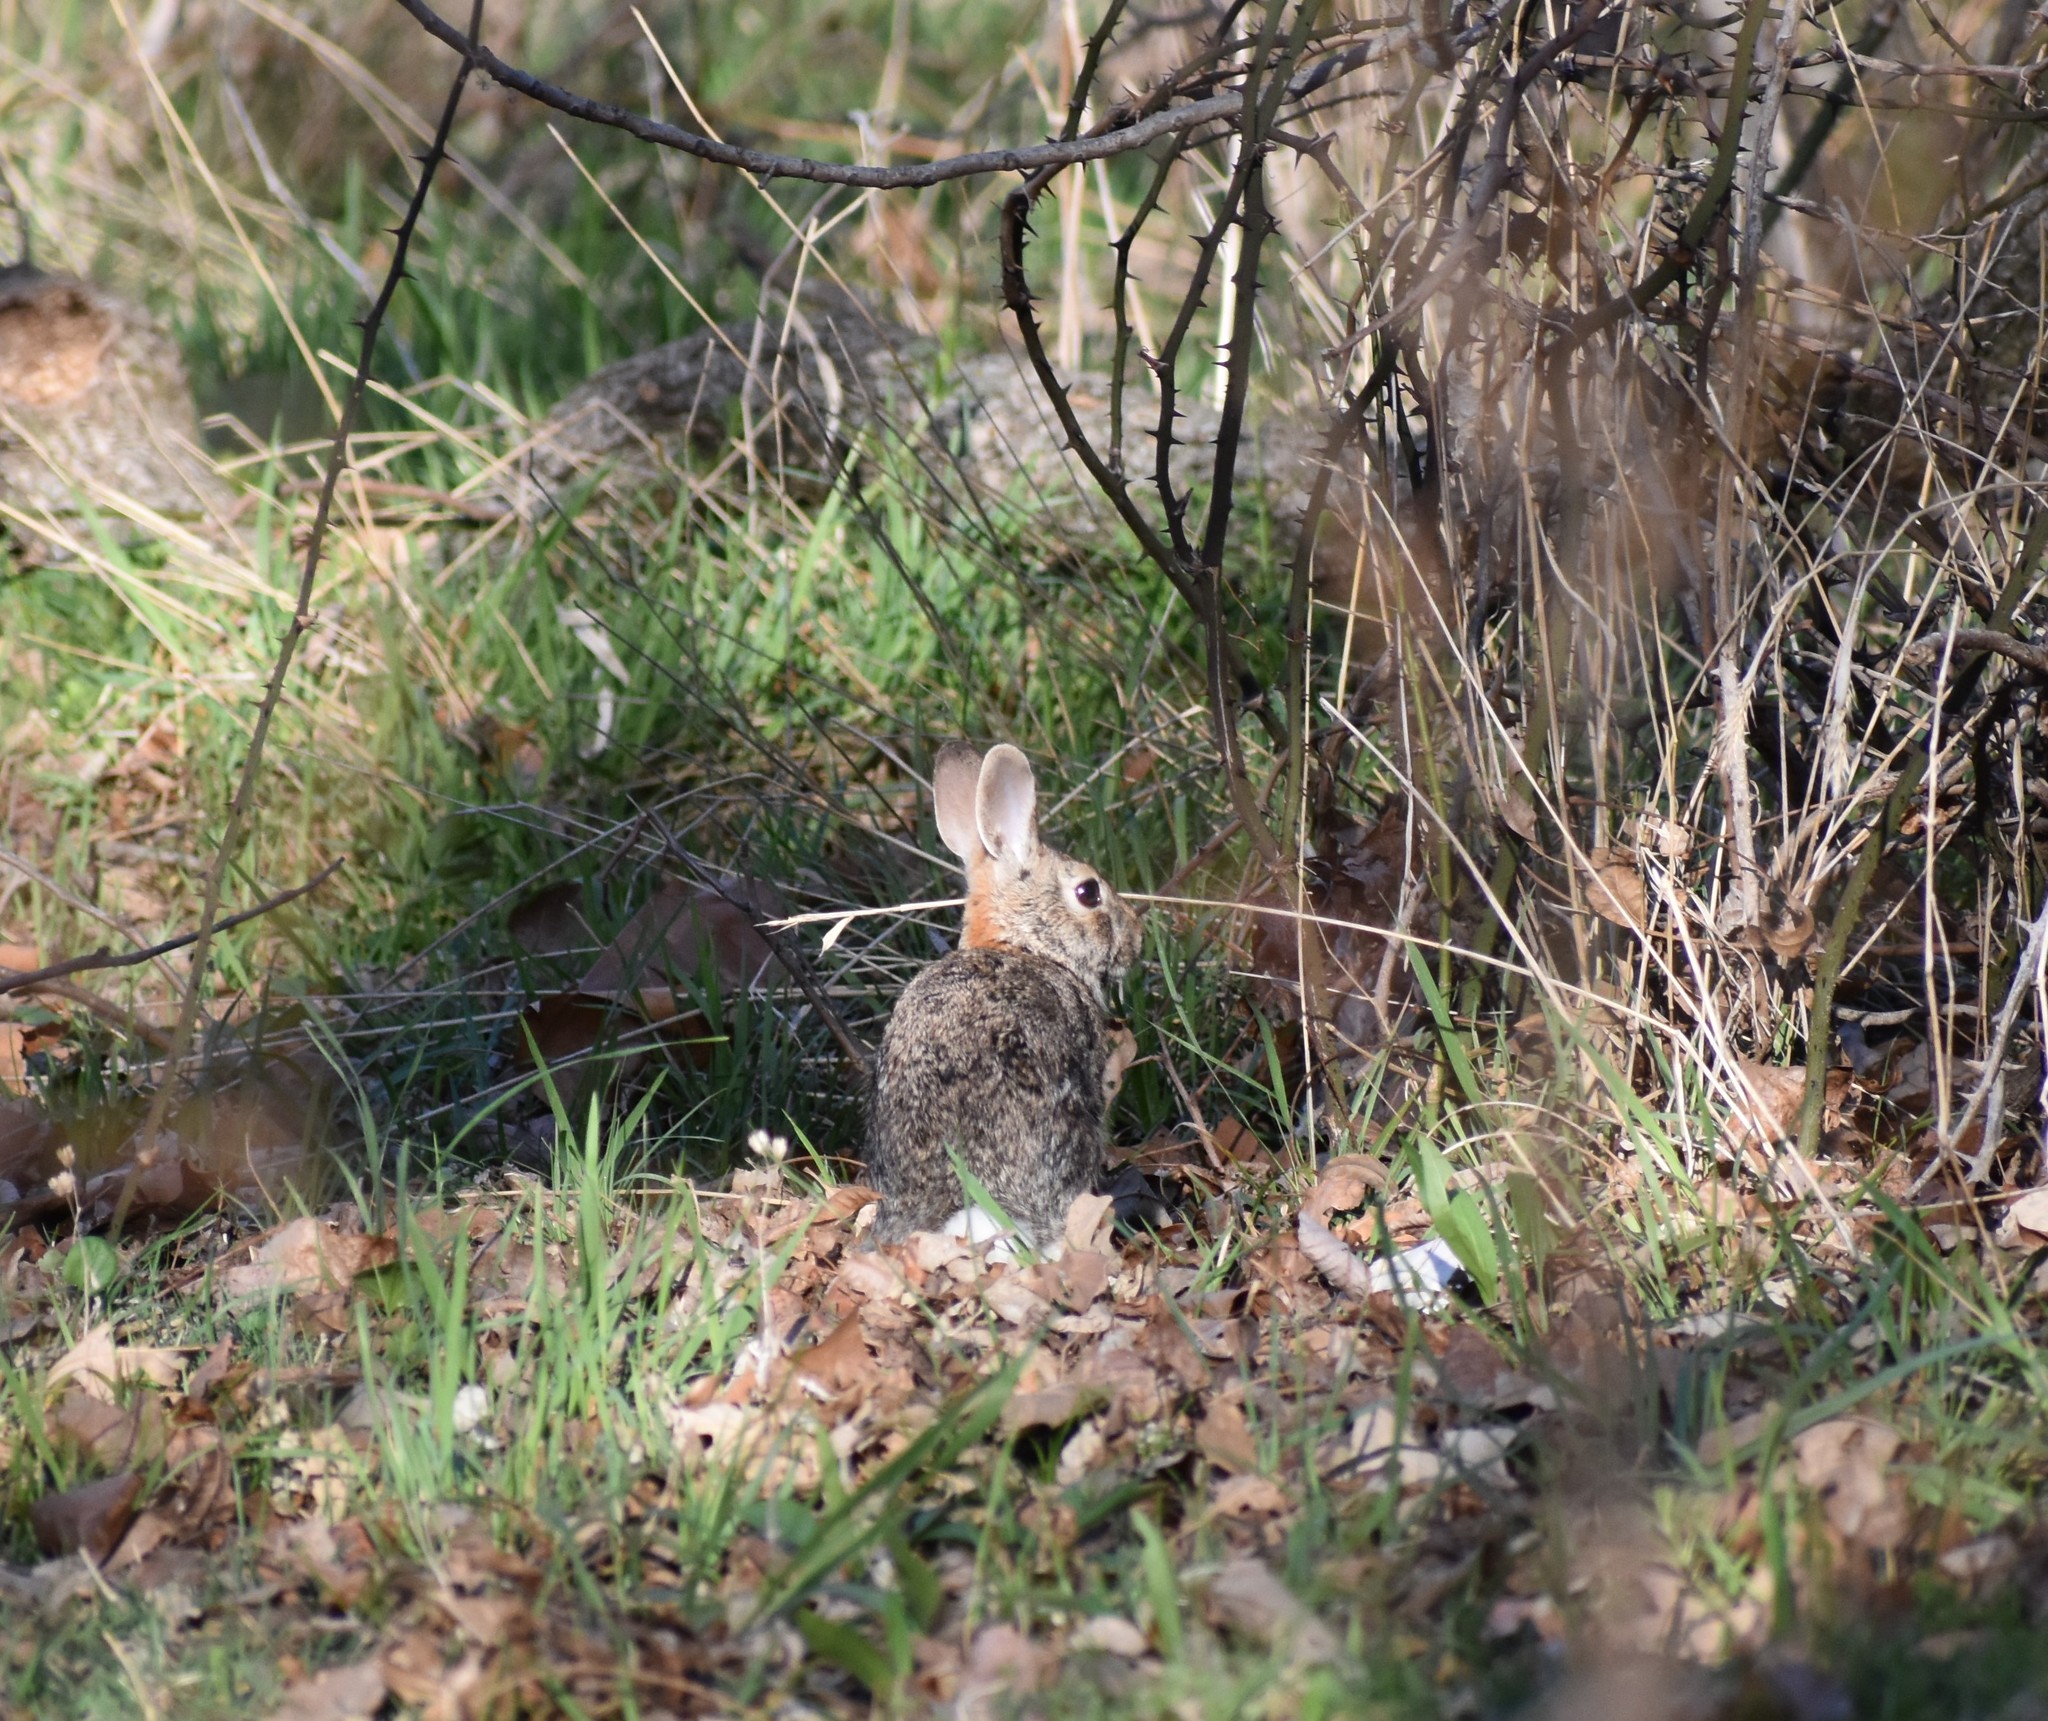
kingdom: Animalia
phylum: Chordata
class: Mammalia
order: Lagomorpha
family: Leporidae
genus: Sylvilagus
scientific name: Sylvilagus floridanus
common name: Eastern cottontail
